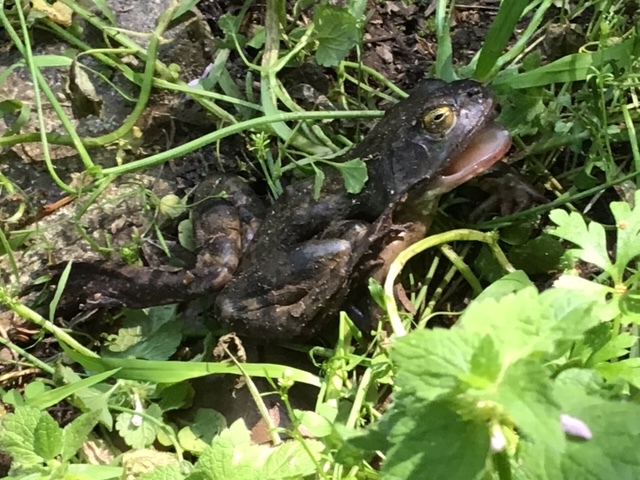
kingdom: Animalia
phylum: Chordata
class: Amphibia
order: Anura
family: Ranidae
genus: Lithobates
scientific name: Lithobates catesbeianus
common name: American bullfrog
